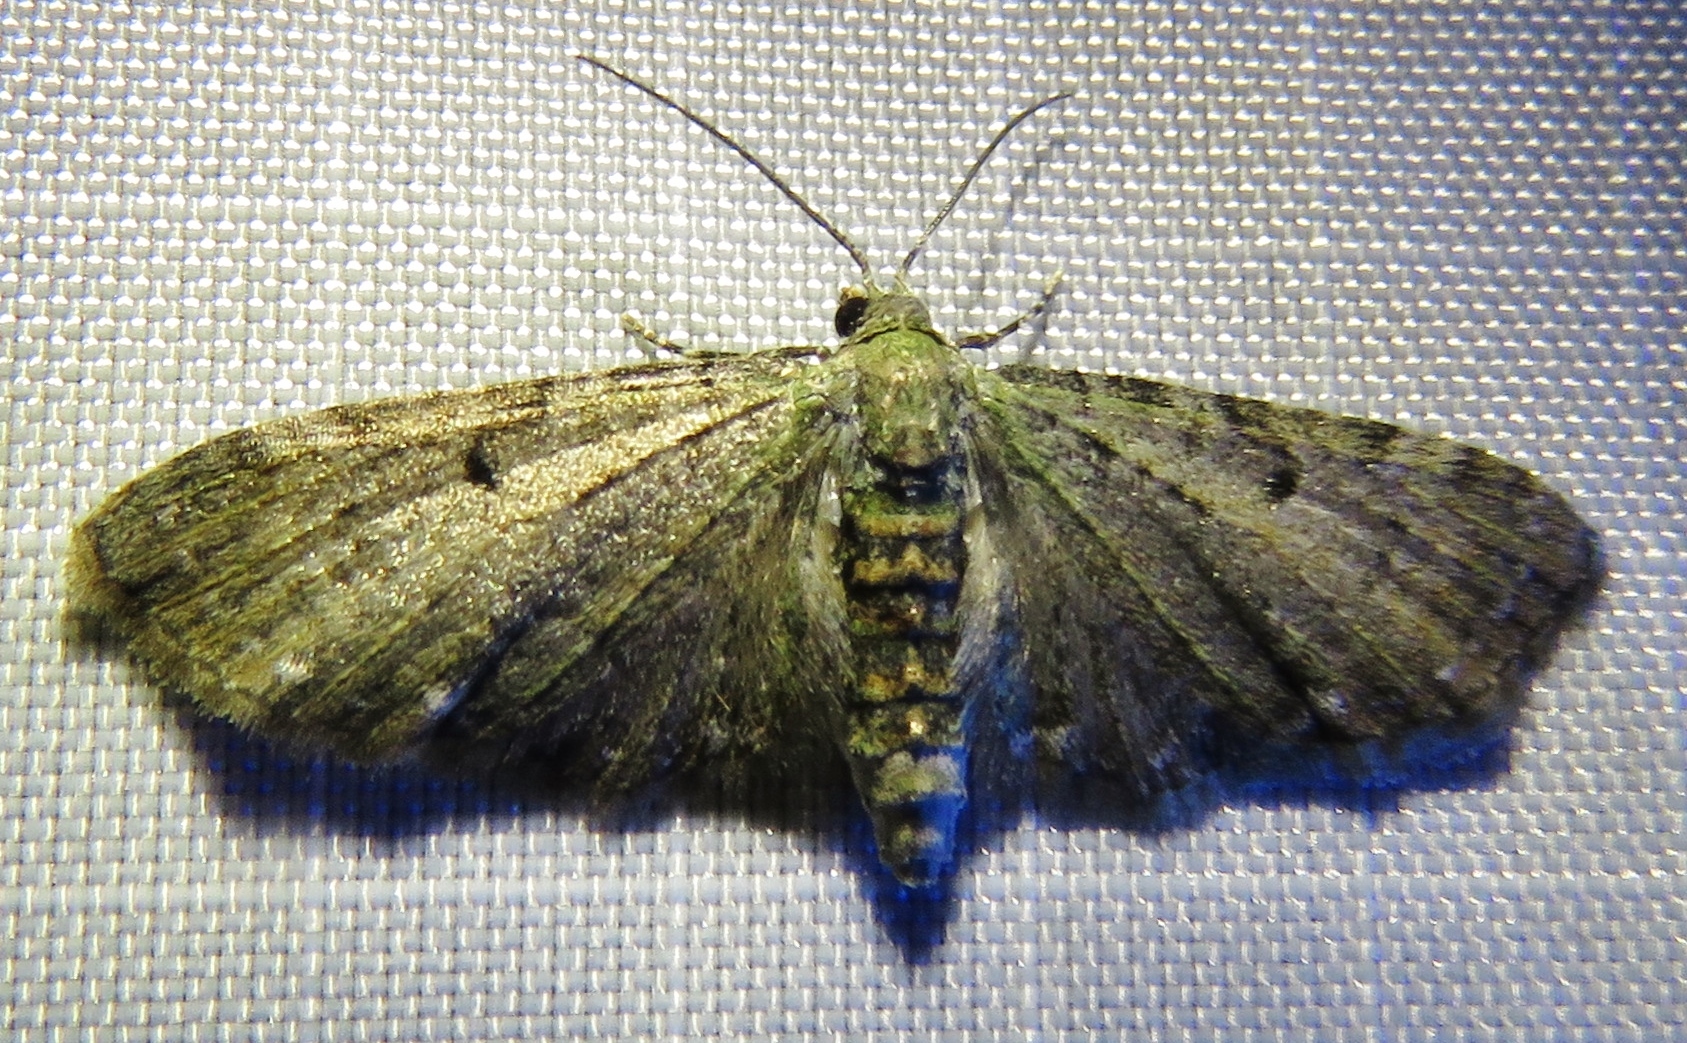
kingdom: Animalia
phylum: Arthropoda
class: Insecta
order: Lepidoptera
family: Geometridae
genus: Eupithecia
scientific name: Eupithecia miserulata
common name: Common eupithecia
